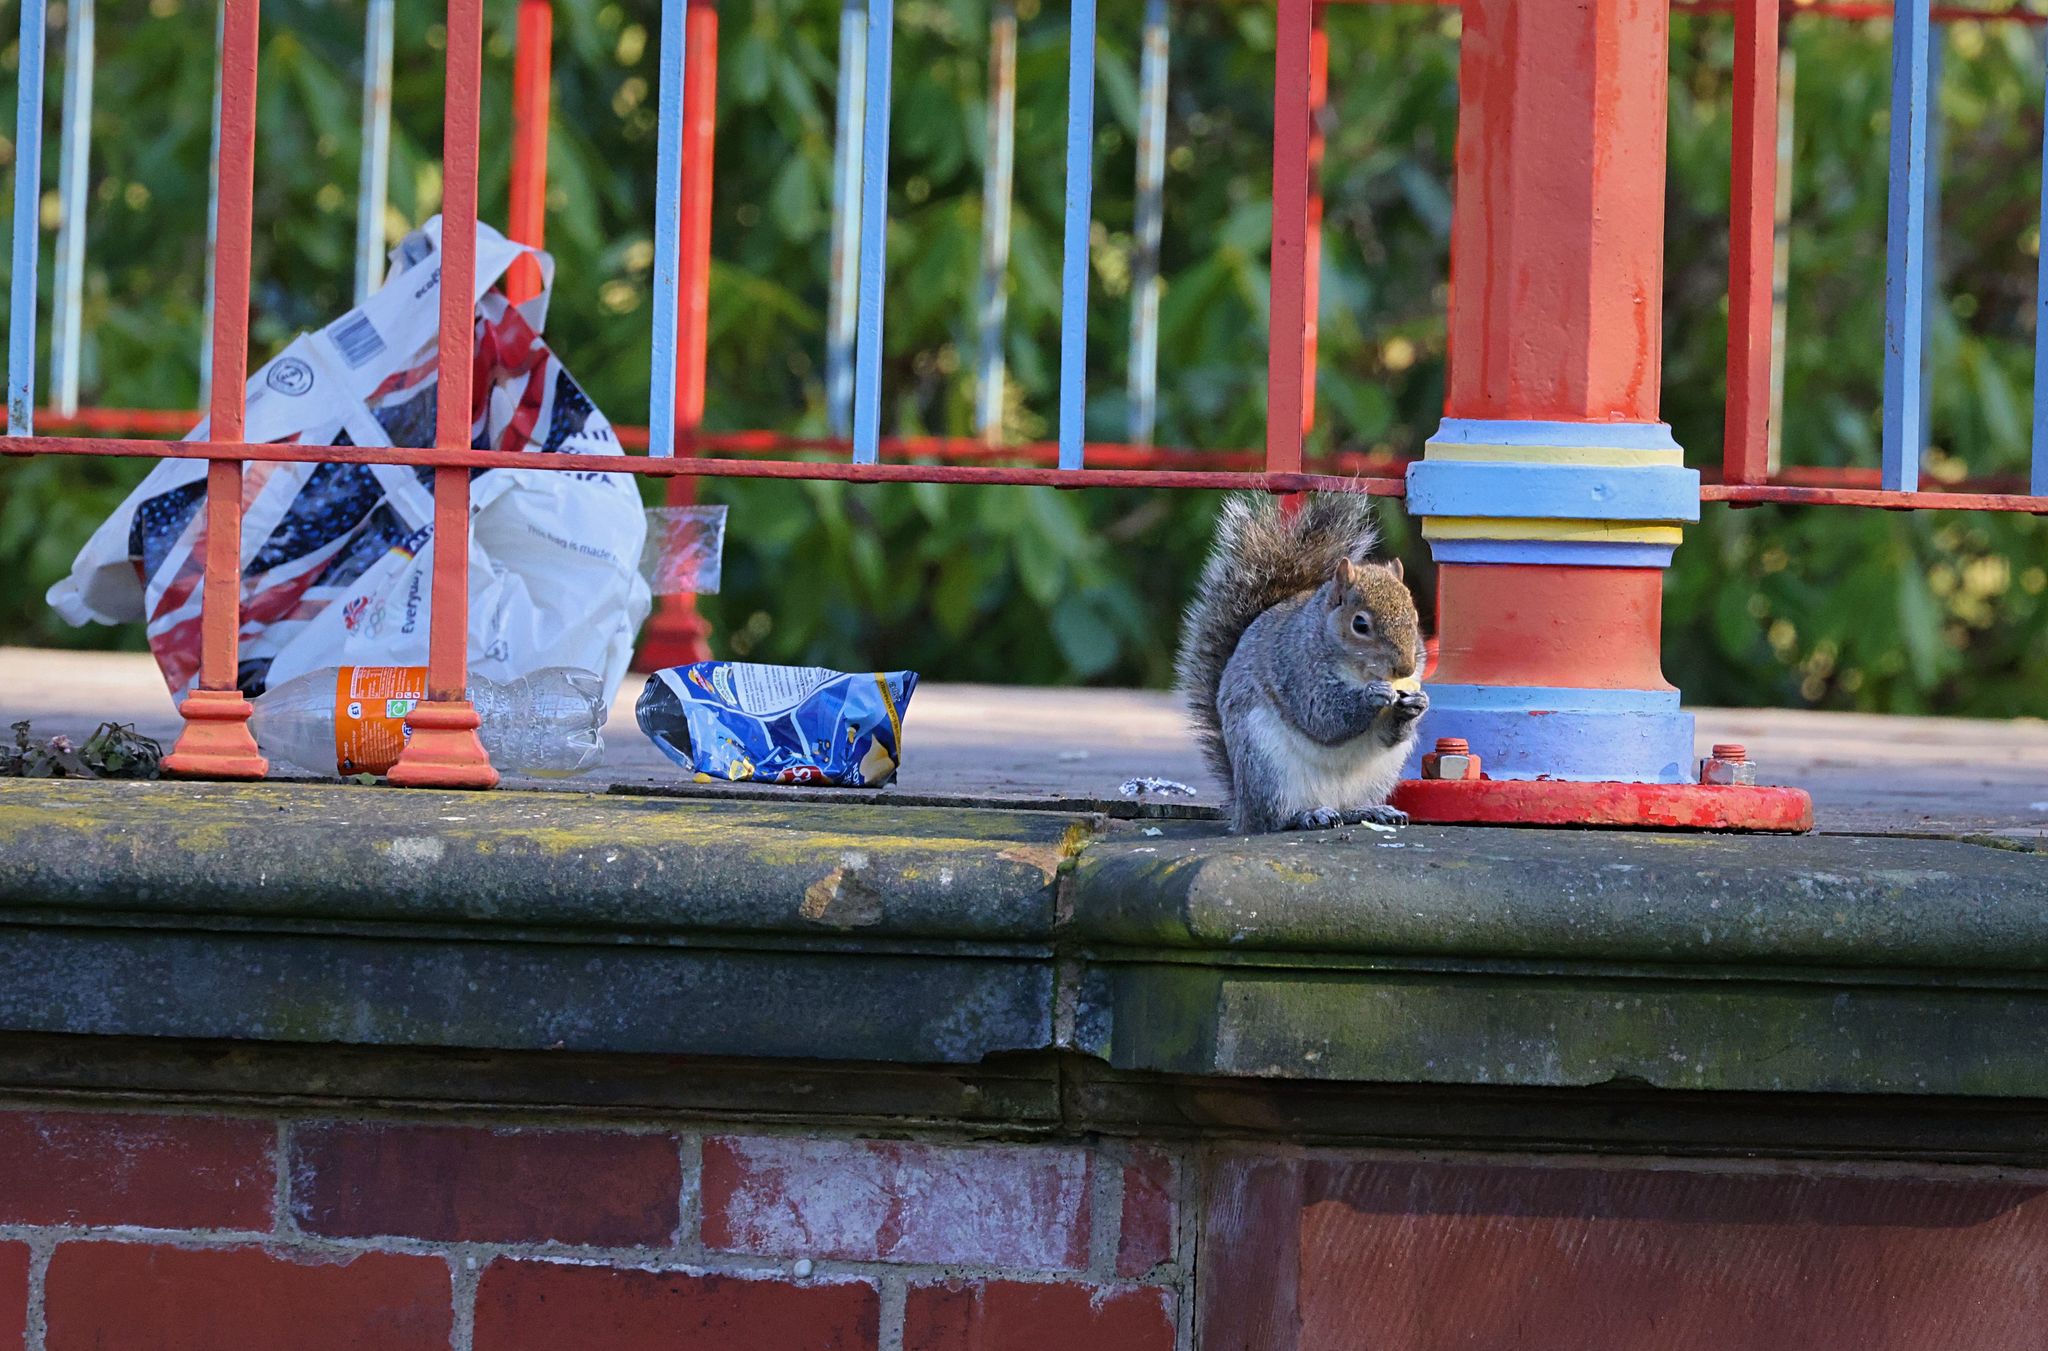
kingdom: Animalia
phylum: Chordata
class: Mammalia
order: Rodentia
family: Sciuridae
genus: Sciurus
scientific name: Sciurus carolinensis
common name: Eastern gray squirrel
